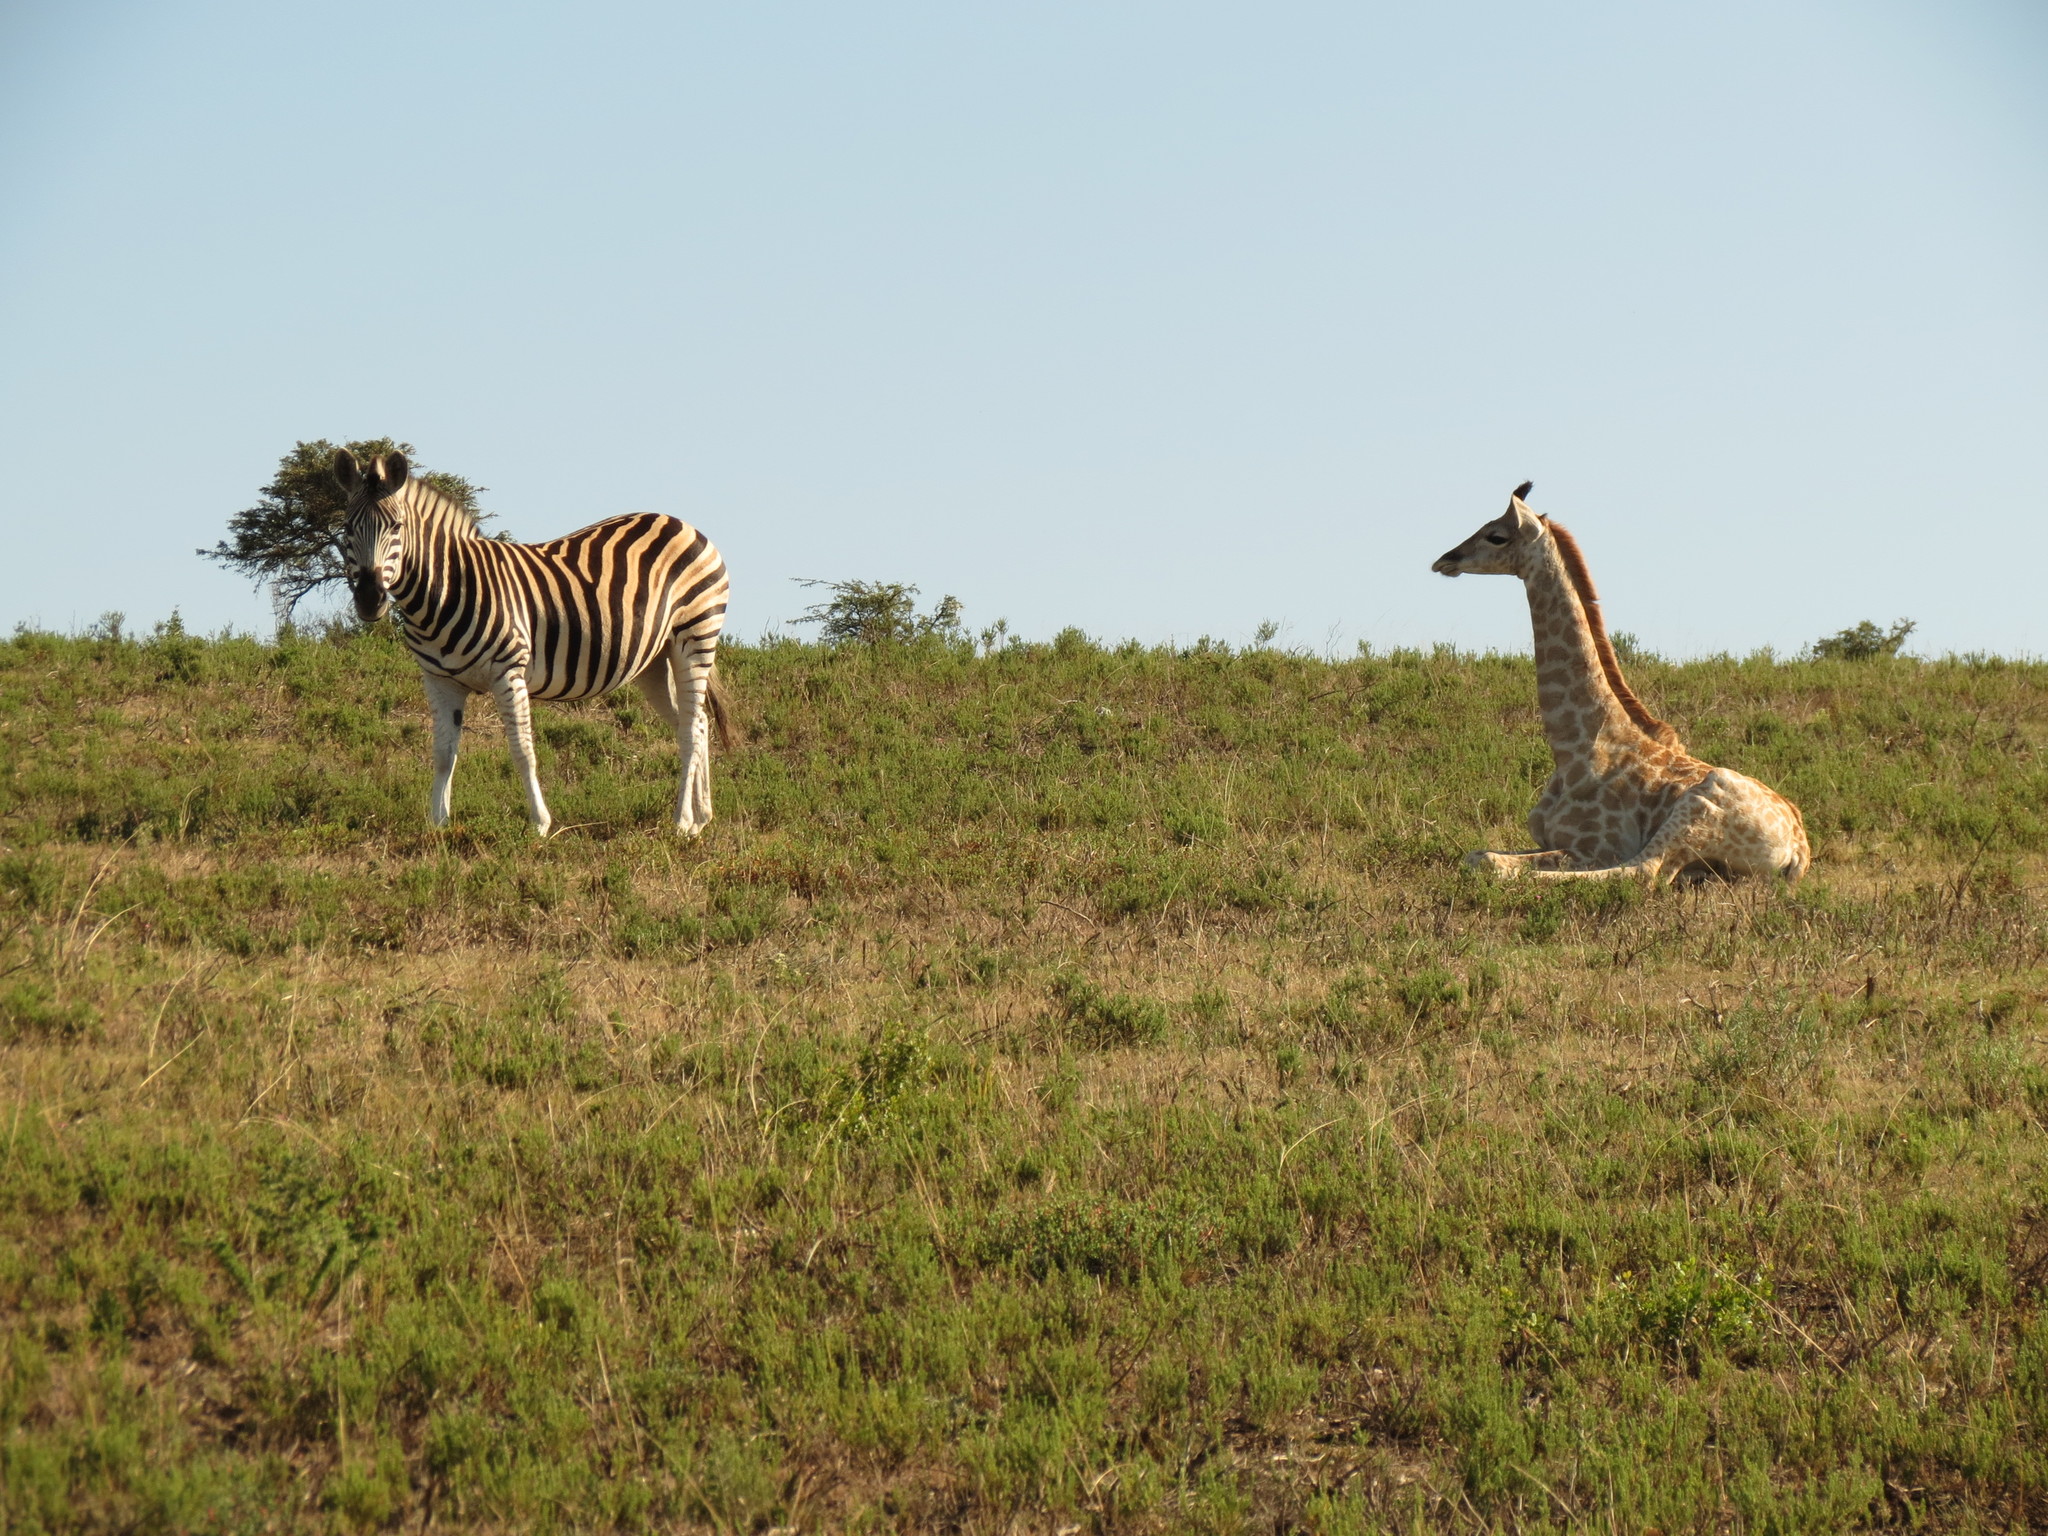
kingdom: Animalia
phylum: Chordata
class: Mammalia
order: Artiodactyla
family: Giraffidae
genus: Giraffa
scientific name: Giraffa giraffa
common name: Southern giraffe
